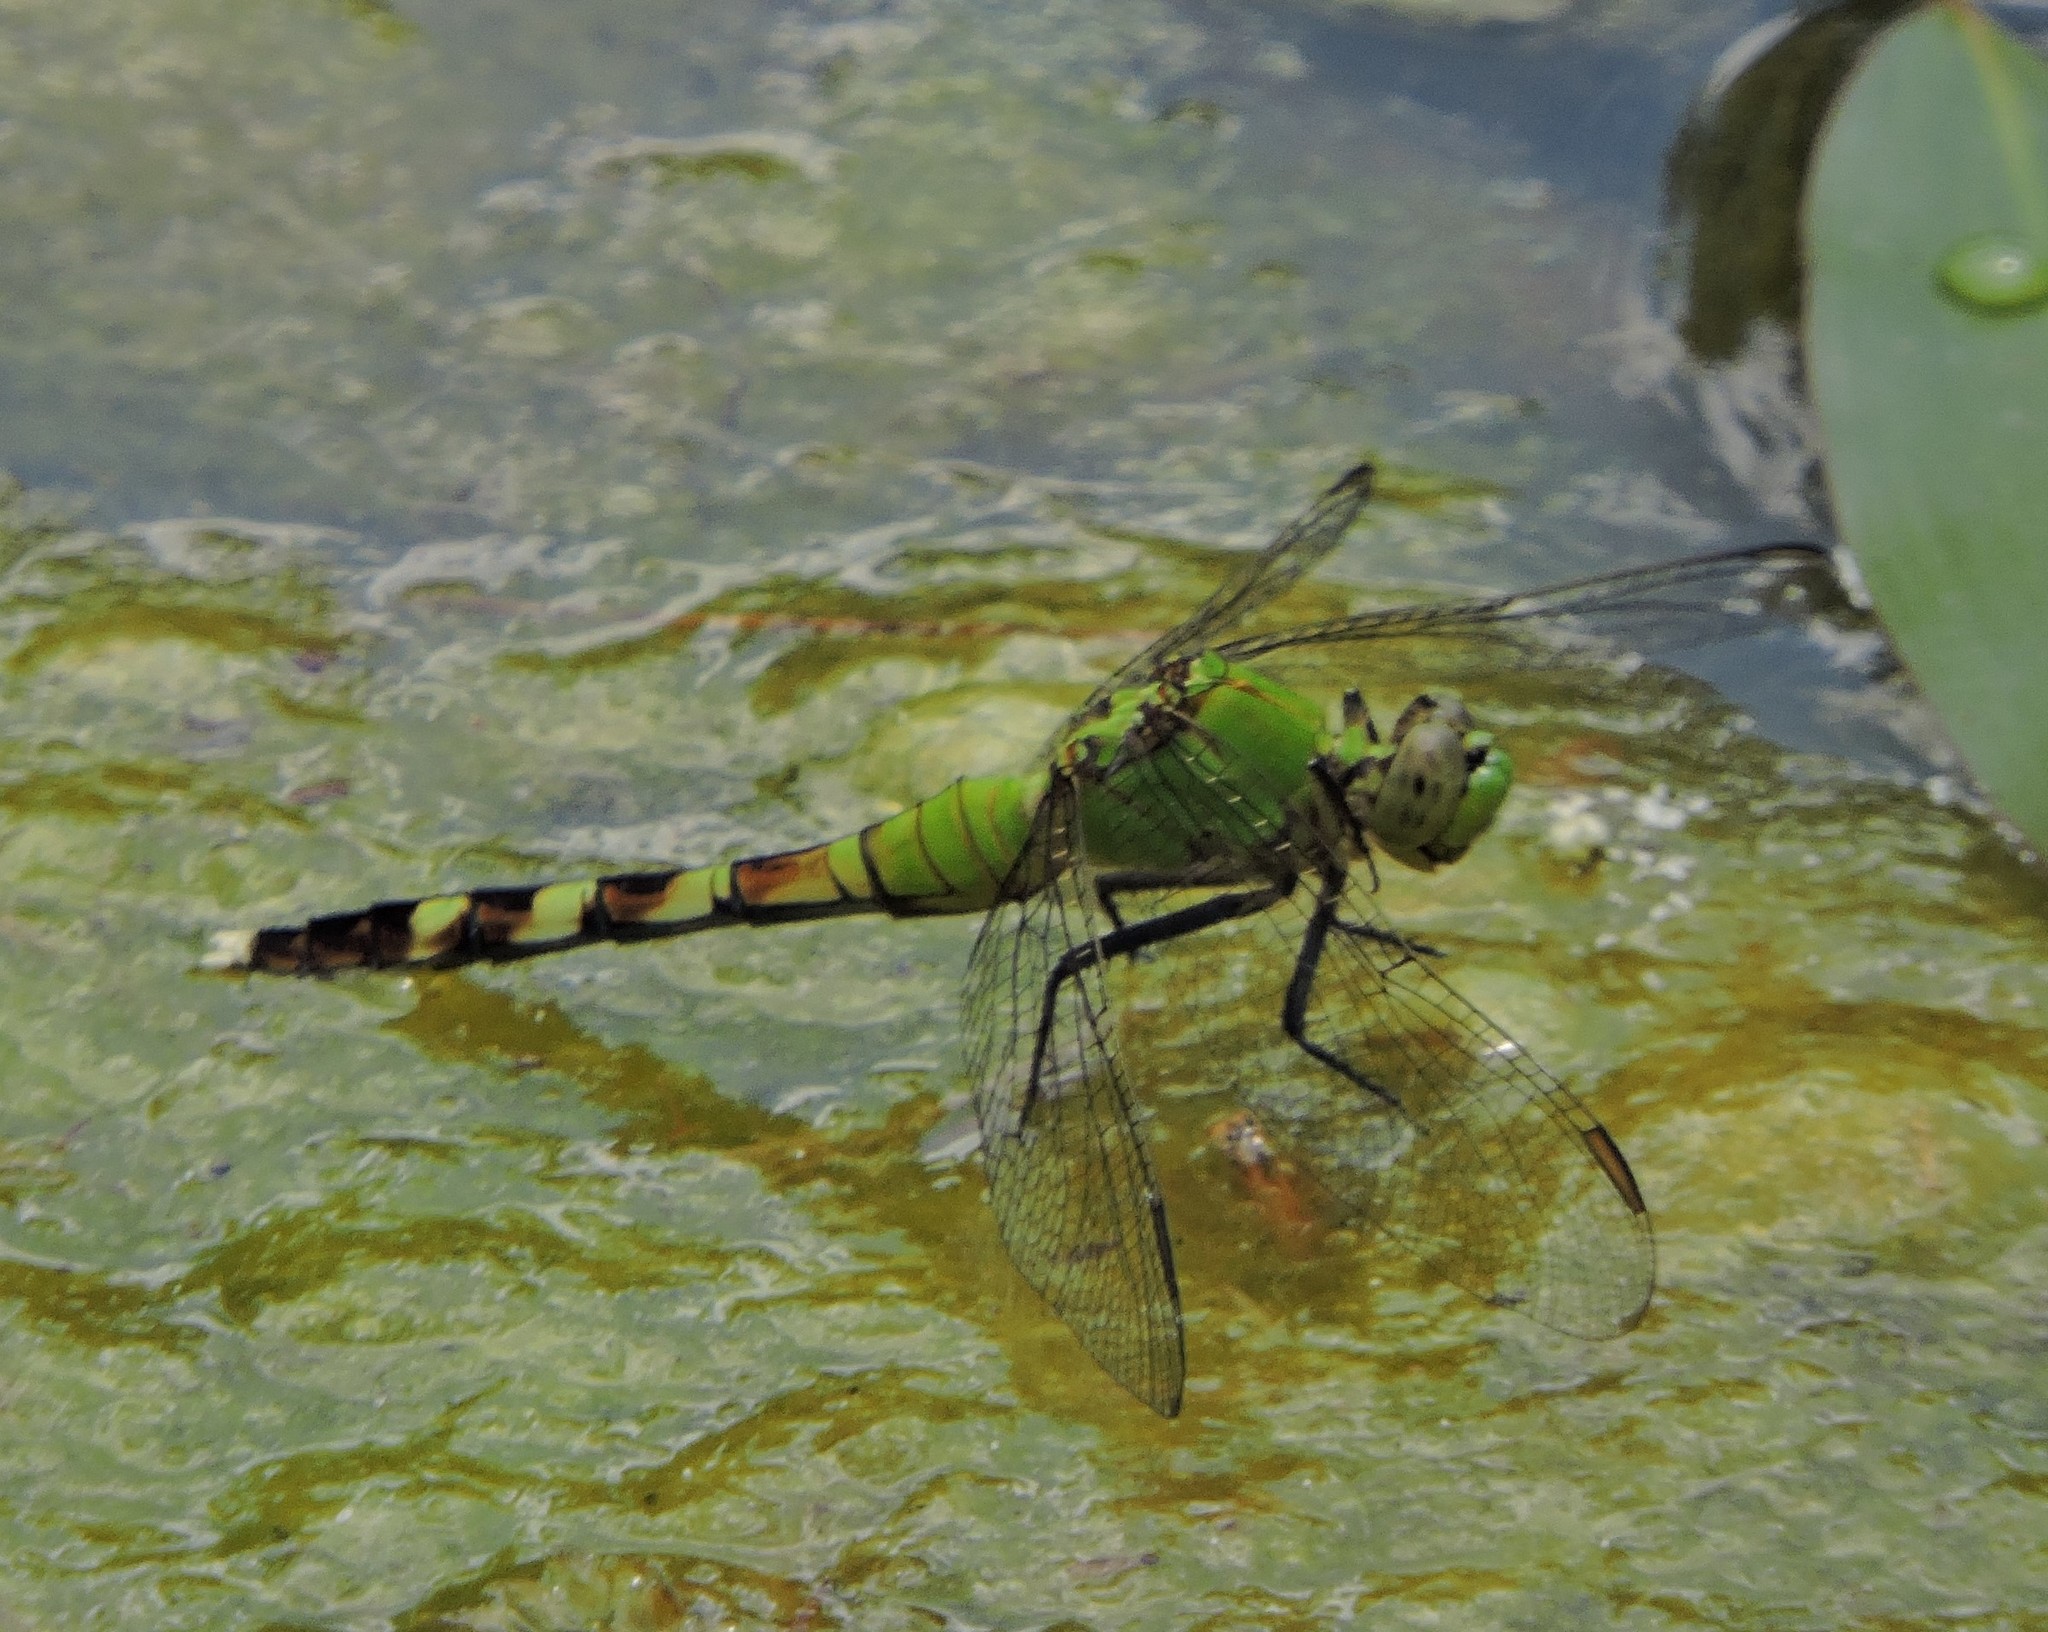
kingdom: Animalia
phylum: Arthropoda
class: Insecta
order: Odonata
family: Libellulidae
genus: Erythemis
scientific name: Erythemis simplicicollis
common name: Eastern pondhawk
